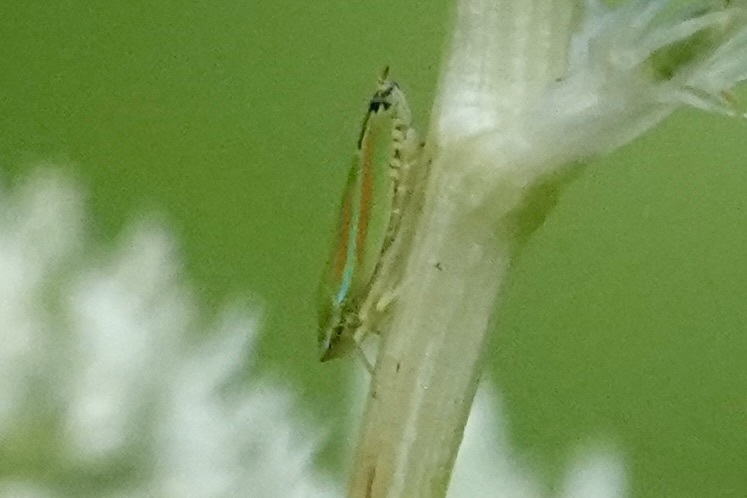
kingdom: Animalia
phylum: Arthropoda
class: Insecta
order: Hemiptera
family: Cicadellidae
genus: Graphocephala
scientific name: Graphocephala versuta
